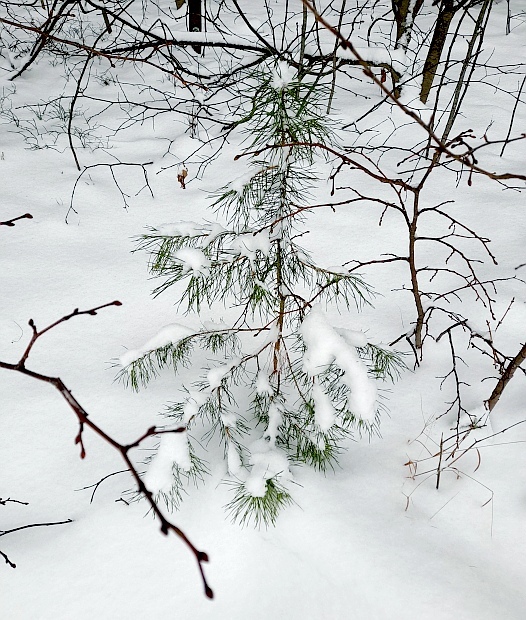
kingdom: Plantae
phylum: Tracheophyta
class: Pinopsida
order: Pinales
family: Pinaceae
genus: Pinus
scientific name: Pinus sylvestris
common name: Scots pine
